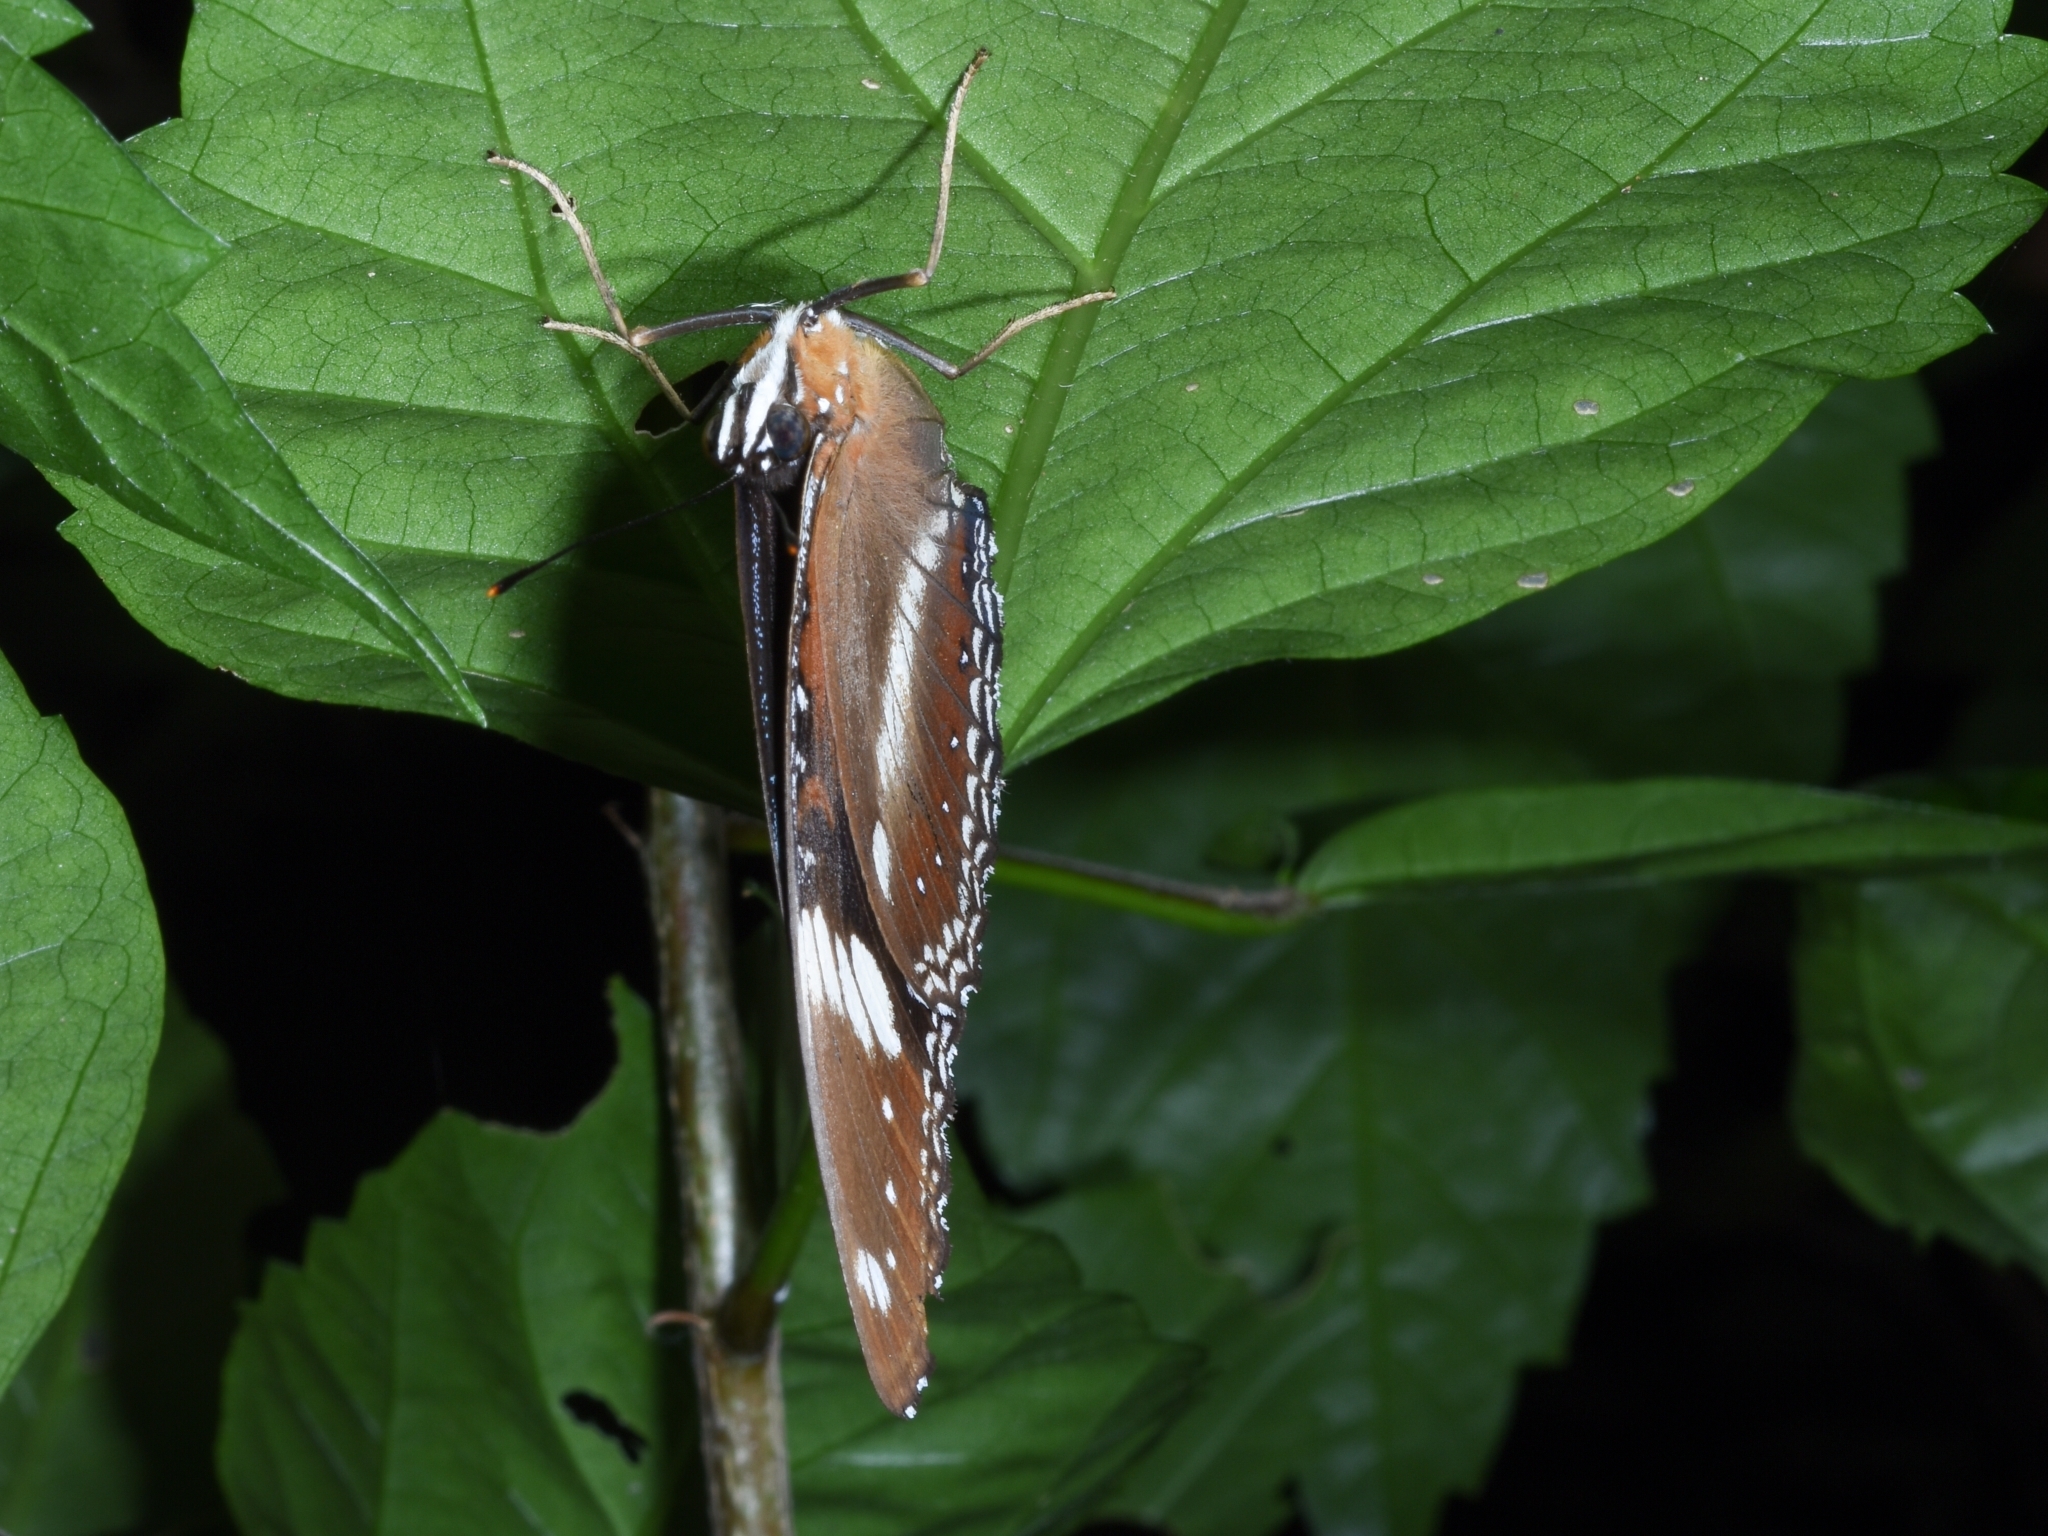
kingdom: Animalia
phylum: Arthropoda
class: Insecta
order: Lepidoptera
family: Nymphalidae
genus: Hypolimnas
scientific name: Hypolimnas bolina
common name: Great eggfly
